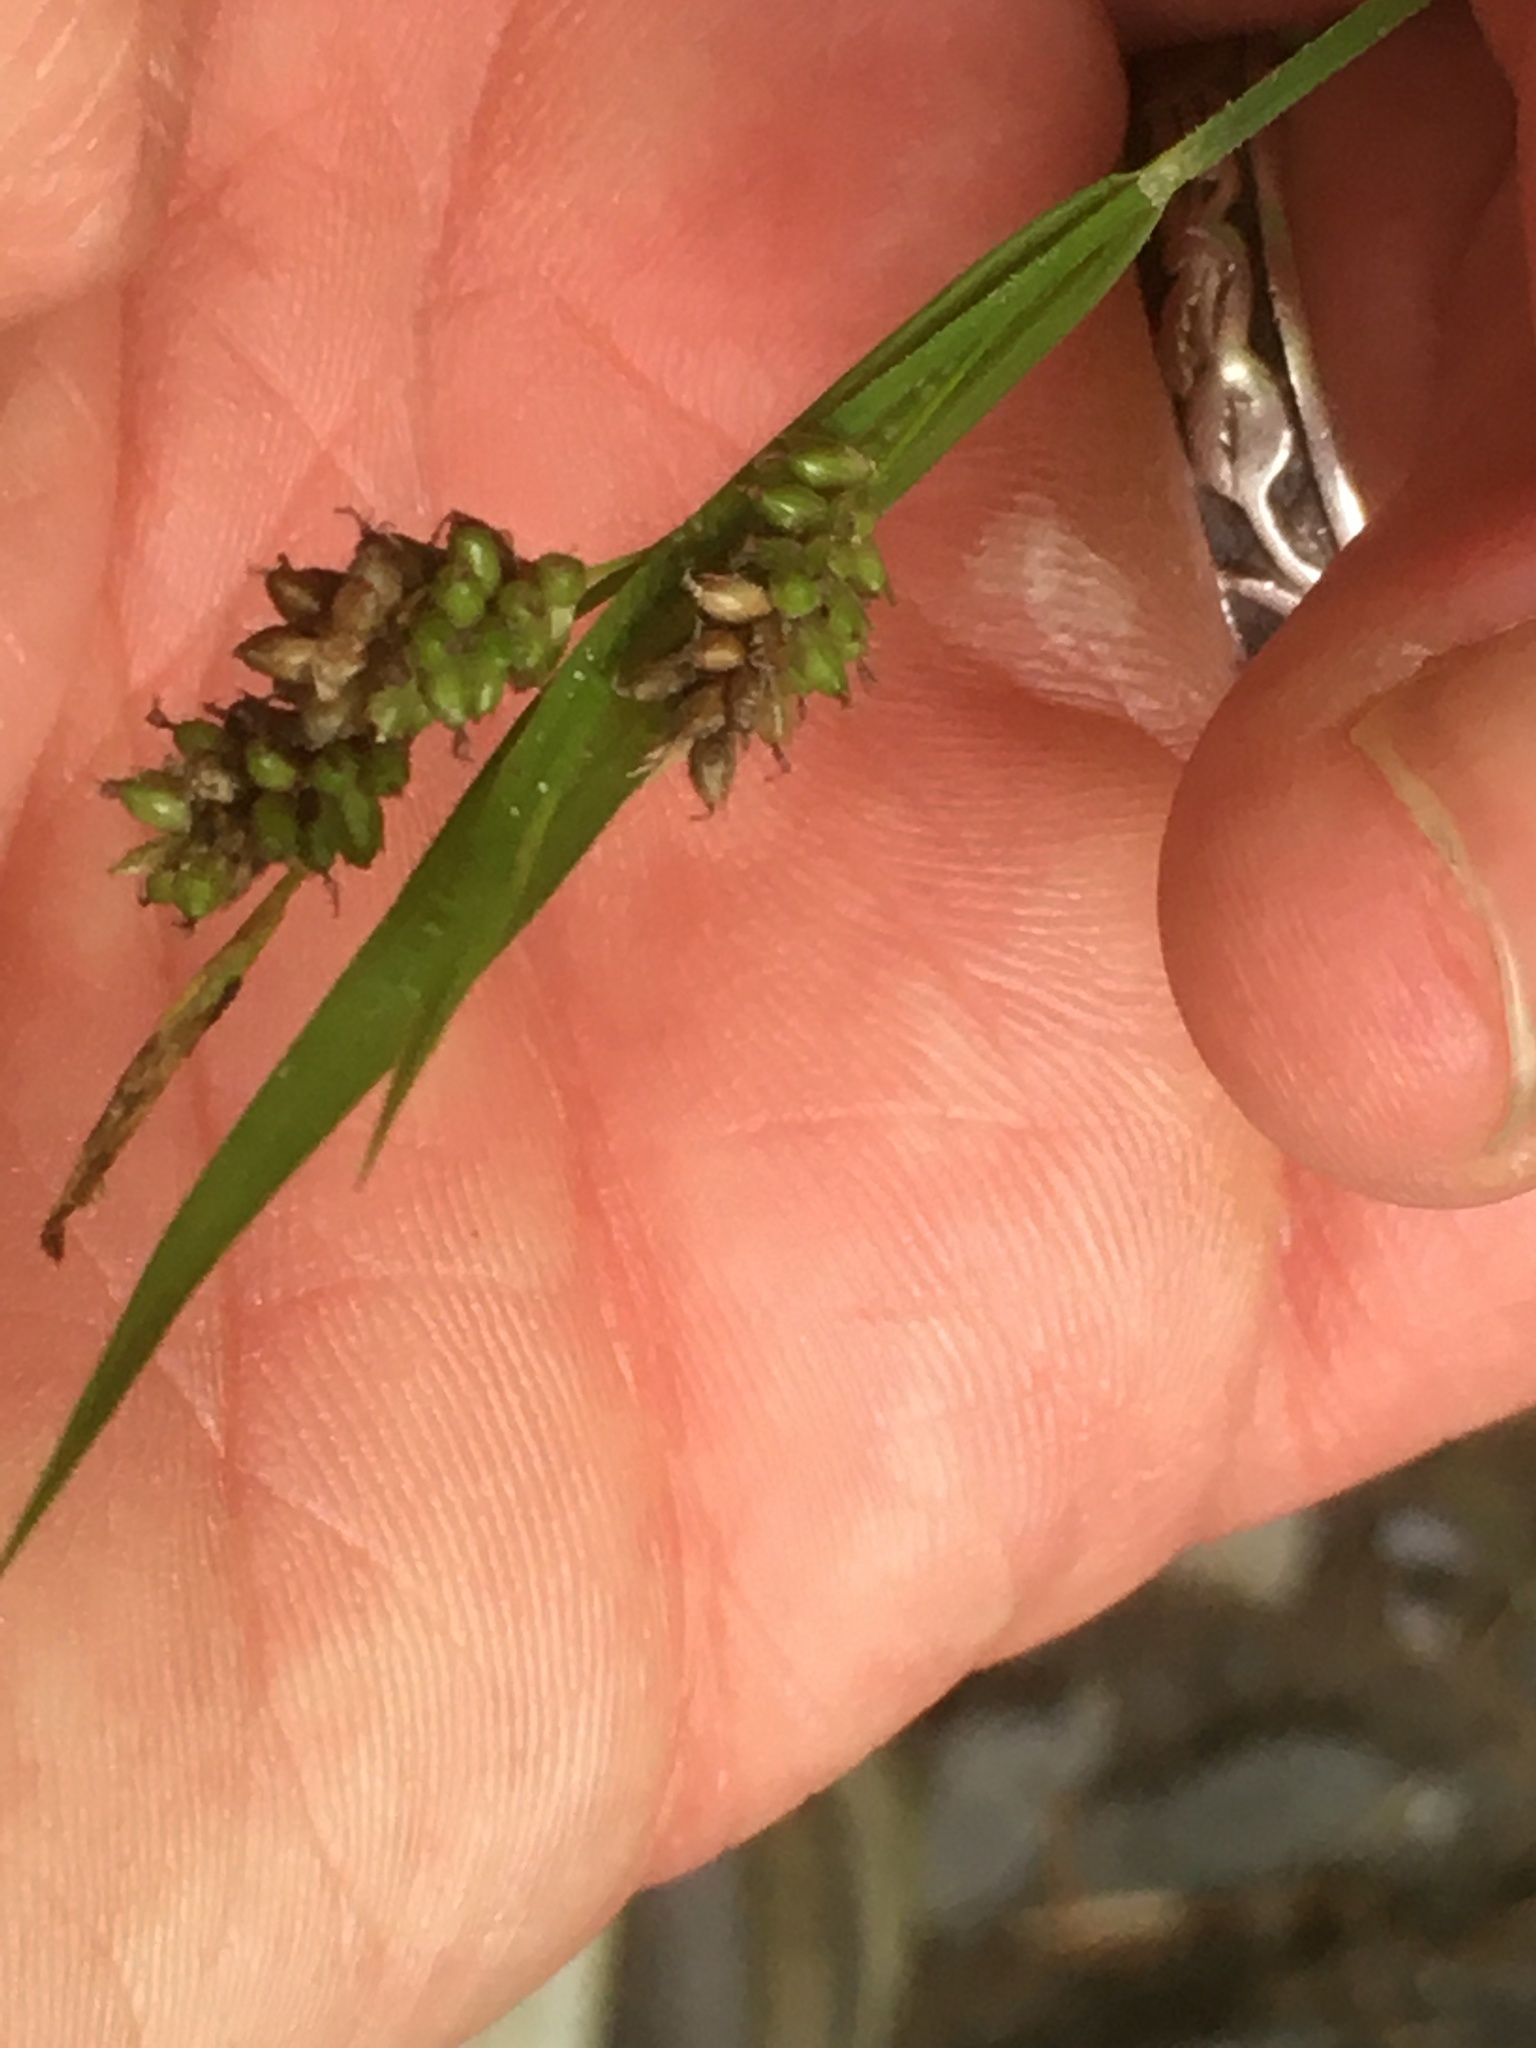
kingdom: Plantae
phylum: Tracheophyta
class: Liliopsida
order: Poales
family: Cyperaceae
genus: Carex
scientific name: Carex pallescens
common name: Pale sedge
